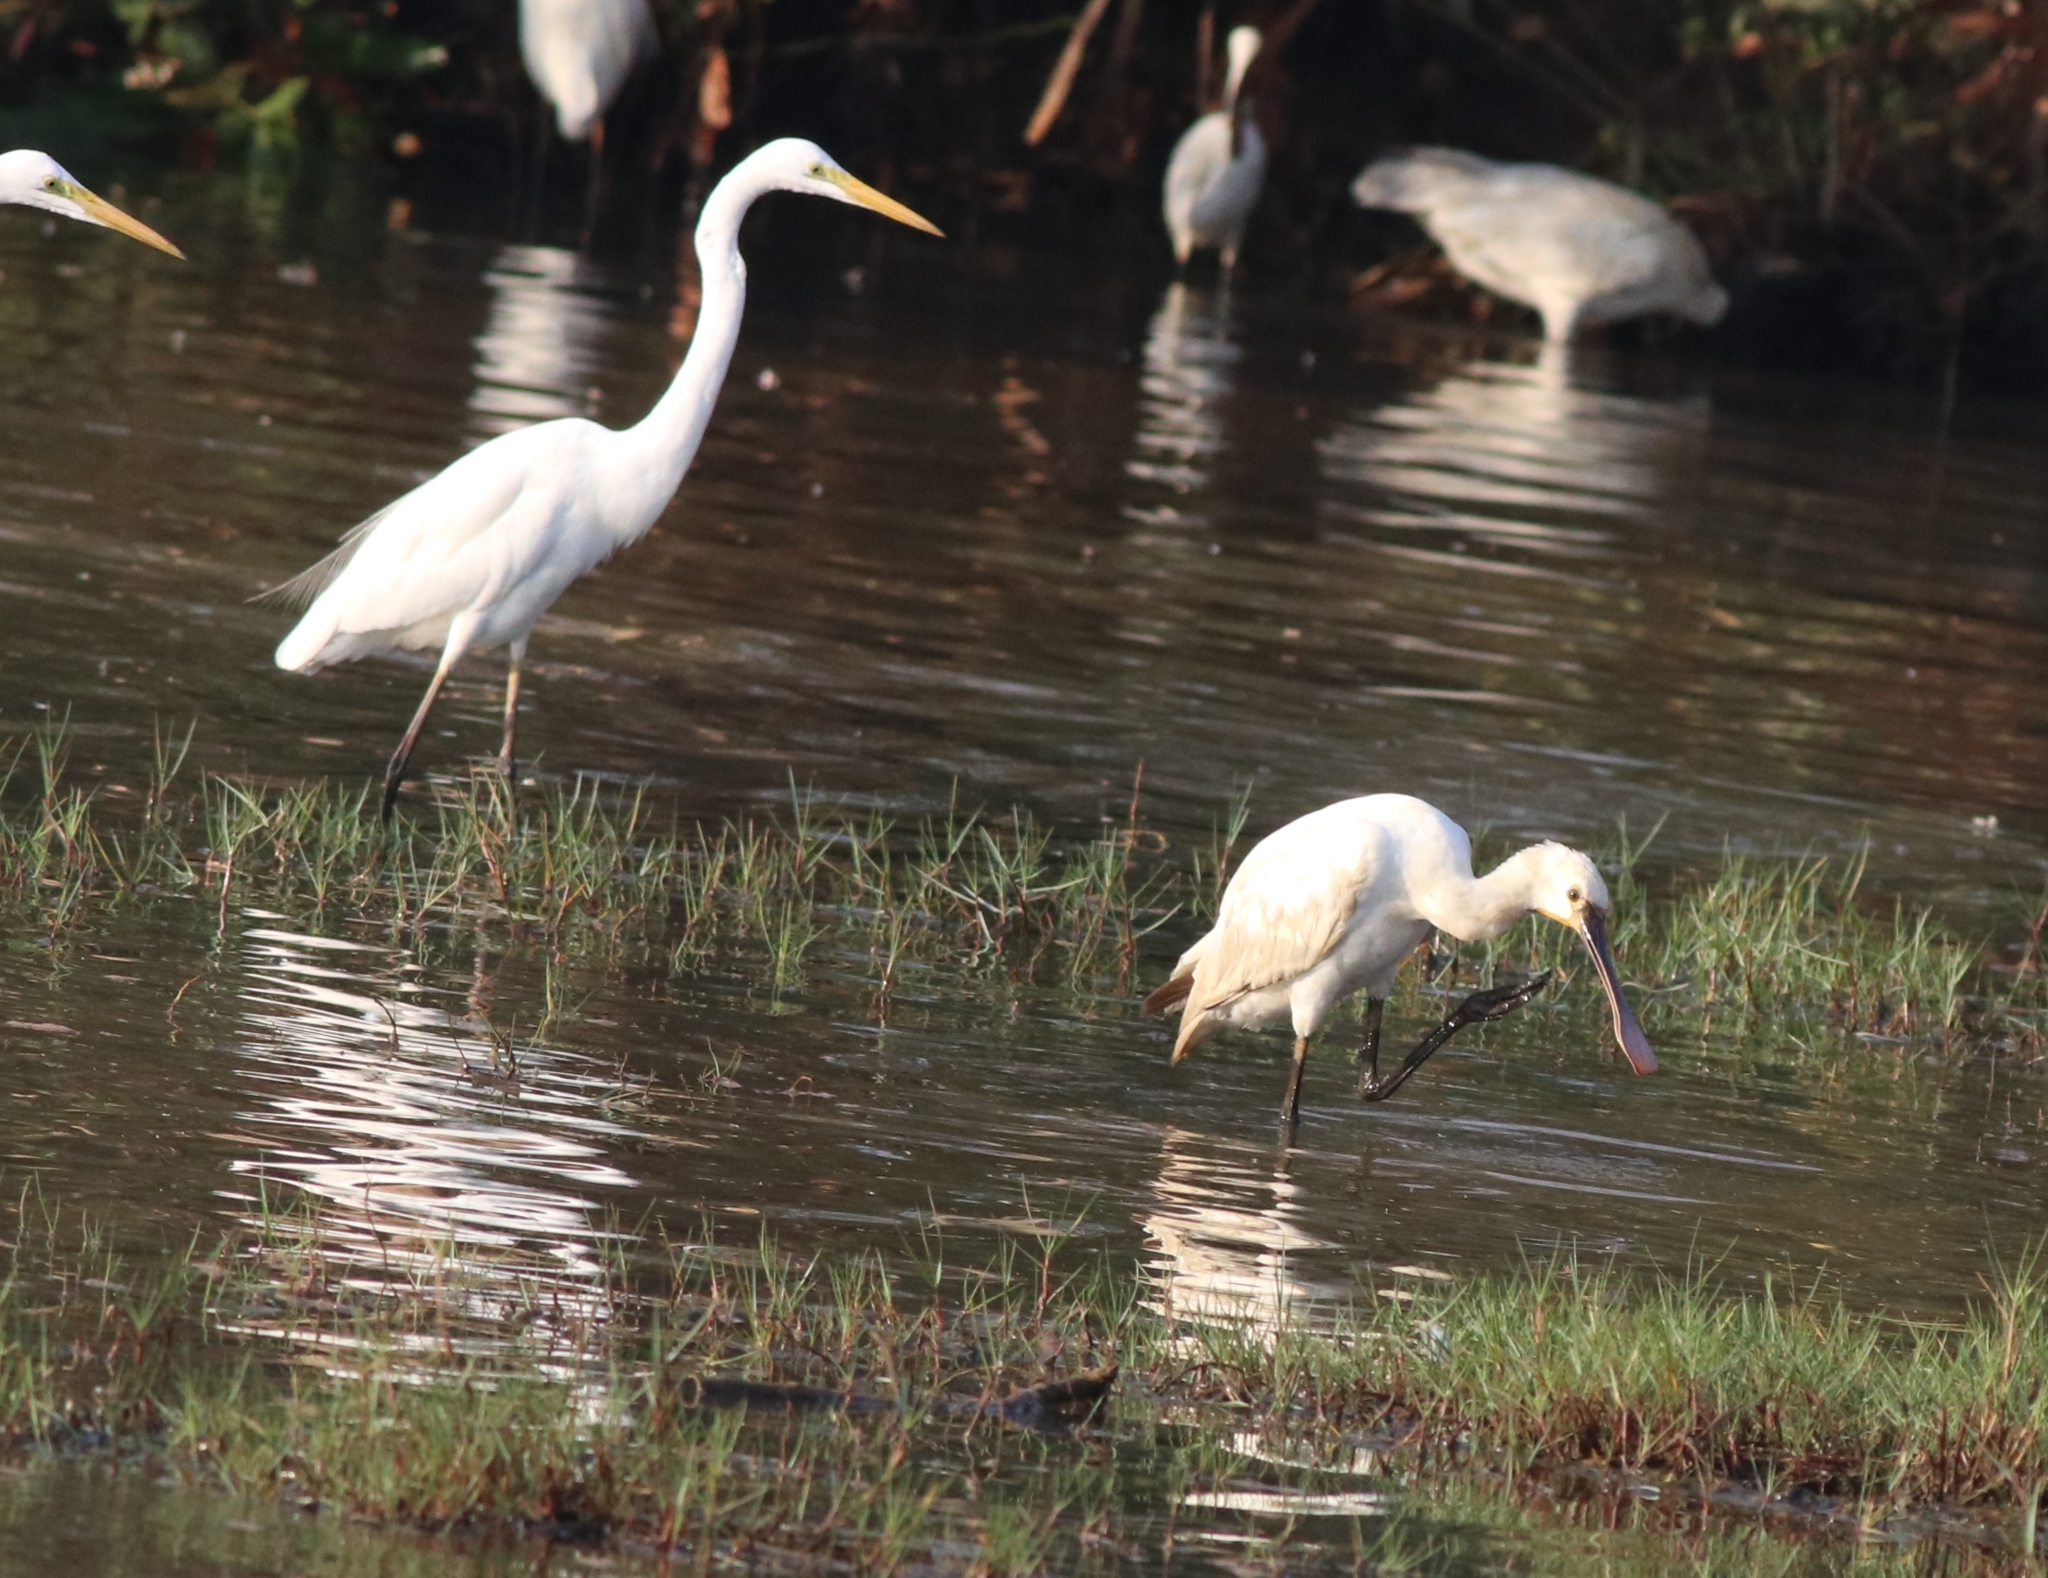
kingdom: Animalia
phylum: Chordata
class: Aves
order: Pelecaniformes
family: Threskiornithidae
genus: Platalea
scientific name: Platalea leucorodia
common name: Eurasian spoonbill
